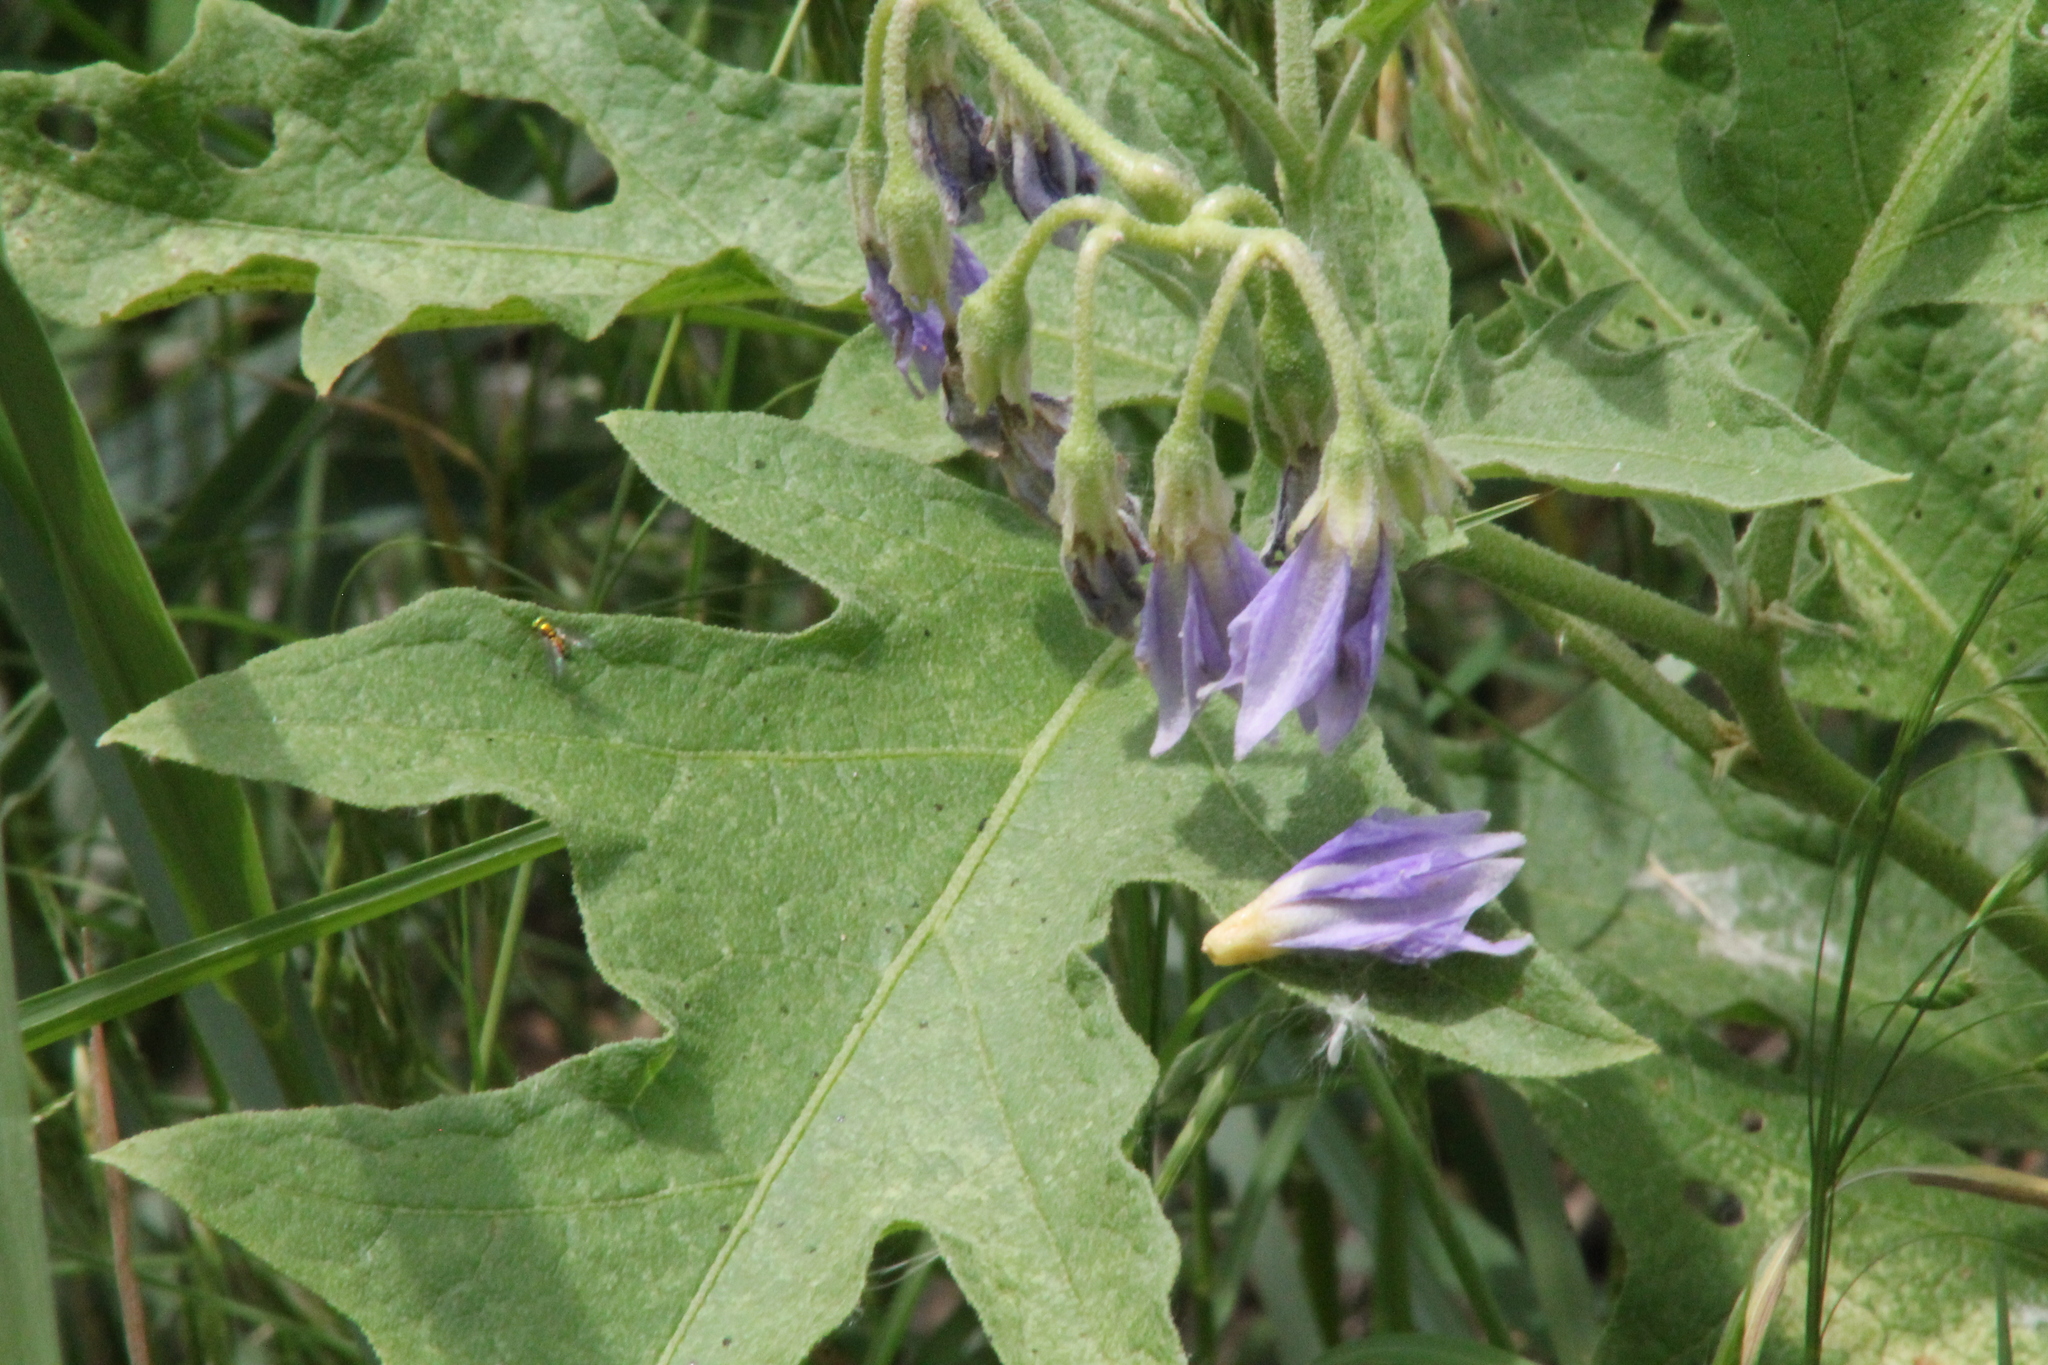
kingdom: Plantae
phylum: Tracheophyta
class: Magnoliopsida
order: Solanales
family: Solanaceae
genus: Solanum
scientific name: Solanum dimidiatum
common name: Carolina horse-nettle
